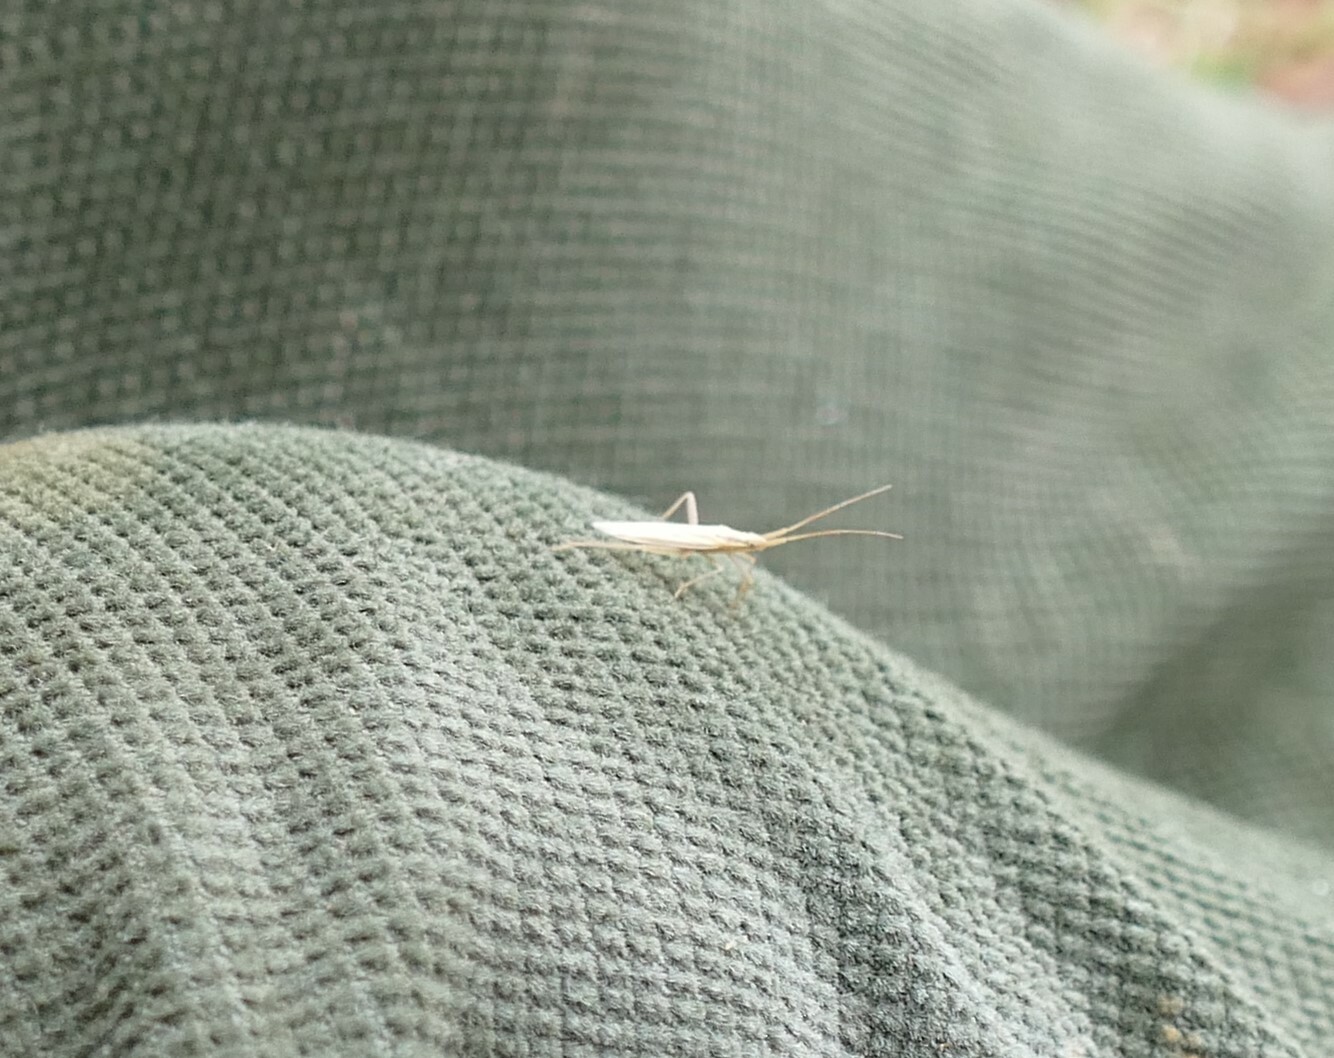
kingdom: Animalia
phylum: Arthropoda
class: Insecta
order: Hemiptera
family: Miridae
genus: Stenodema
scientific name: Stenodema laevigata
